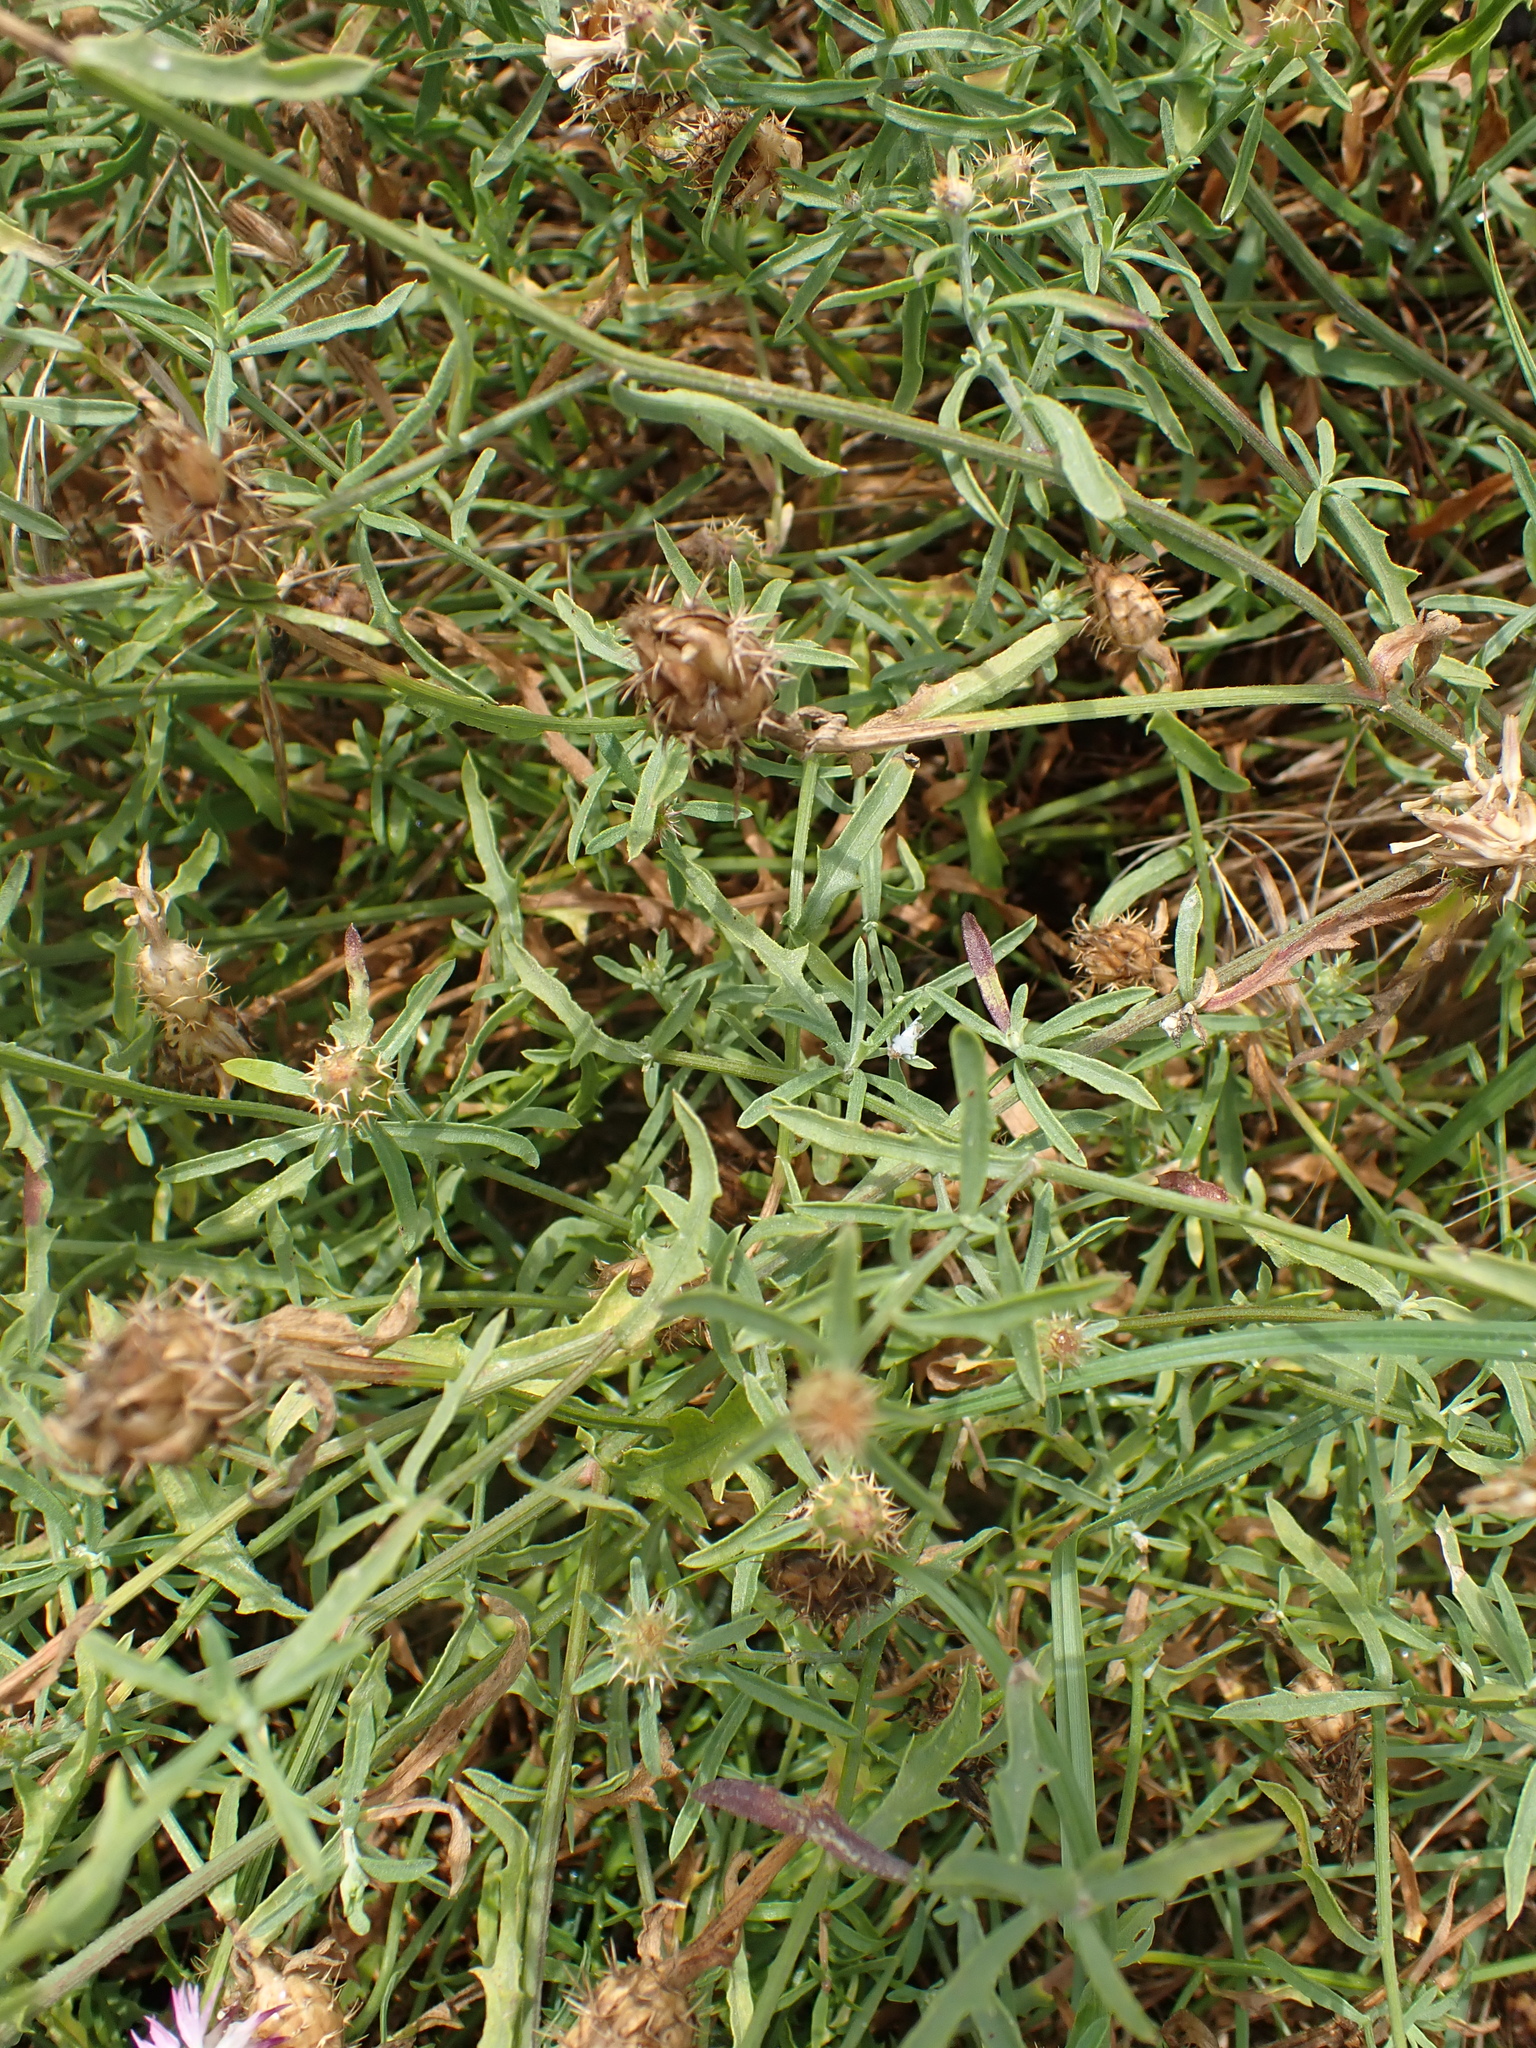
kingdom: Plantae
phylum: Tracheophyta
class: Magnoliopsida
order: Asterales
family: Asteraceae
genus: Centaurea
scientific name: Centaurea aspera
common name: Rough star-thistle
